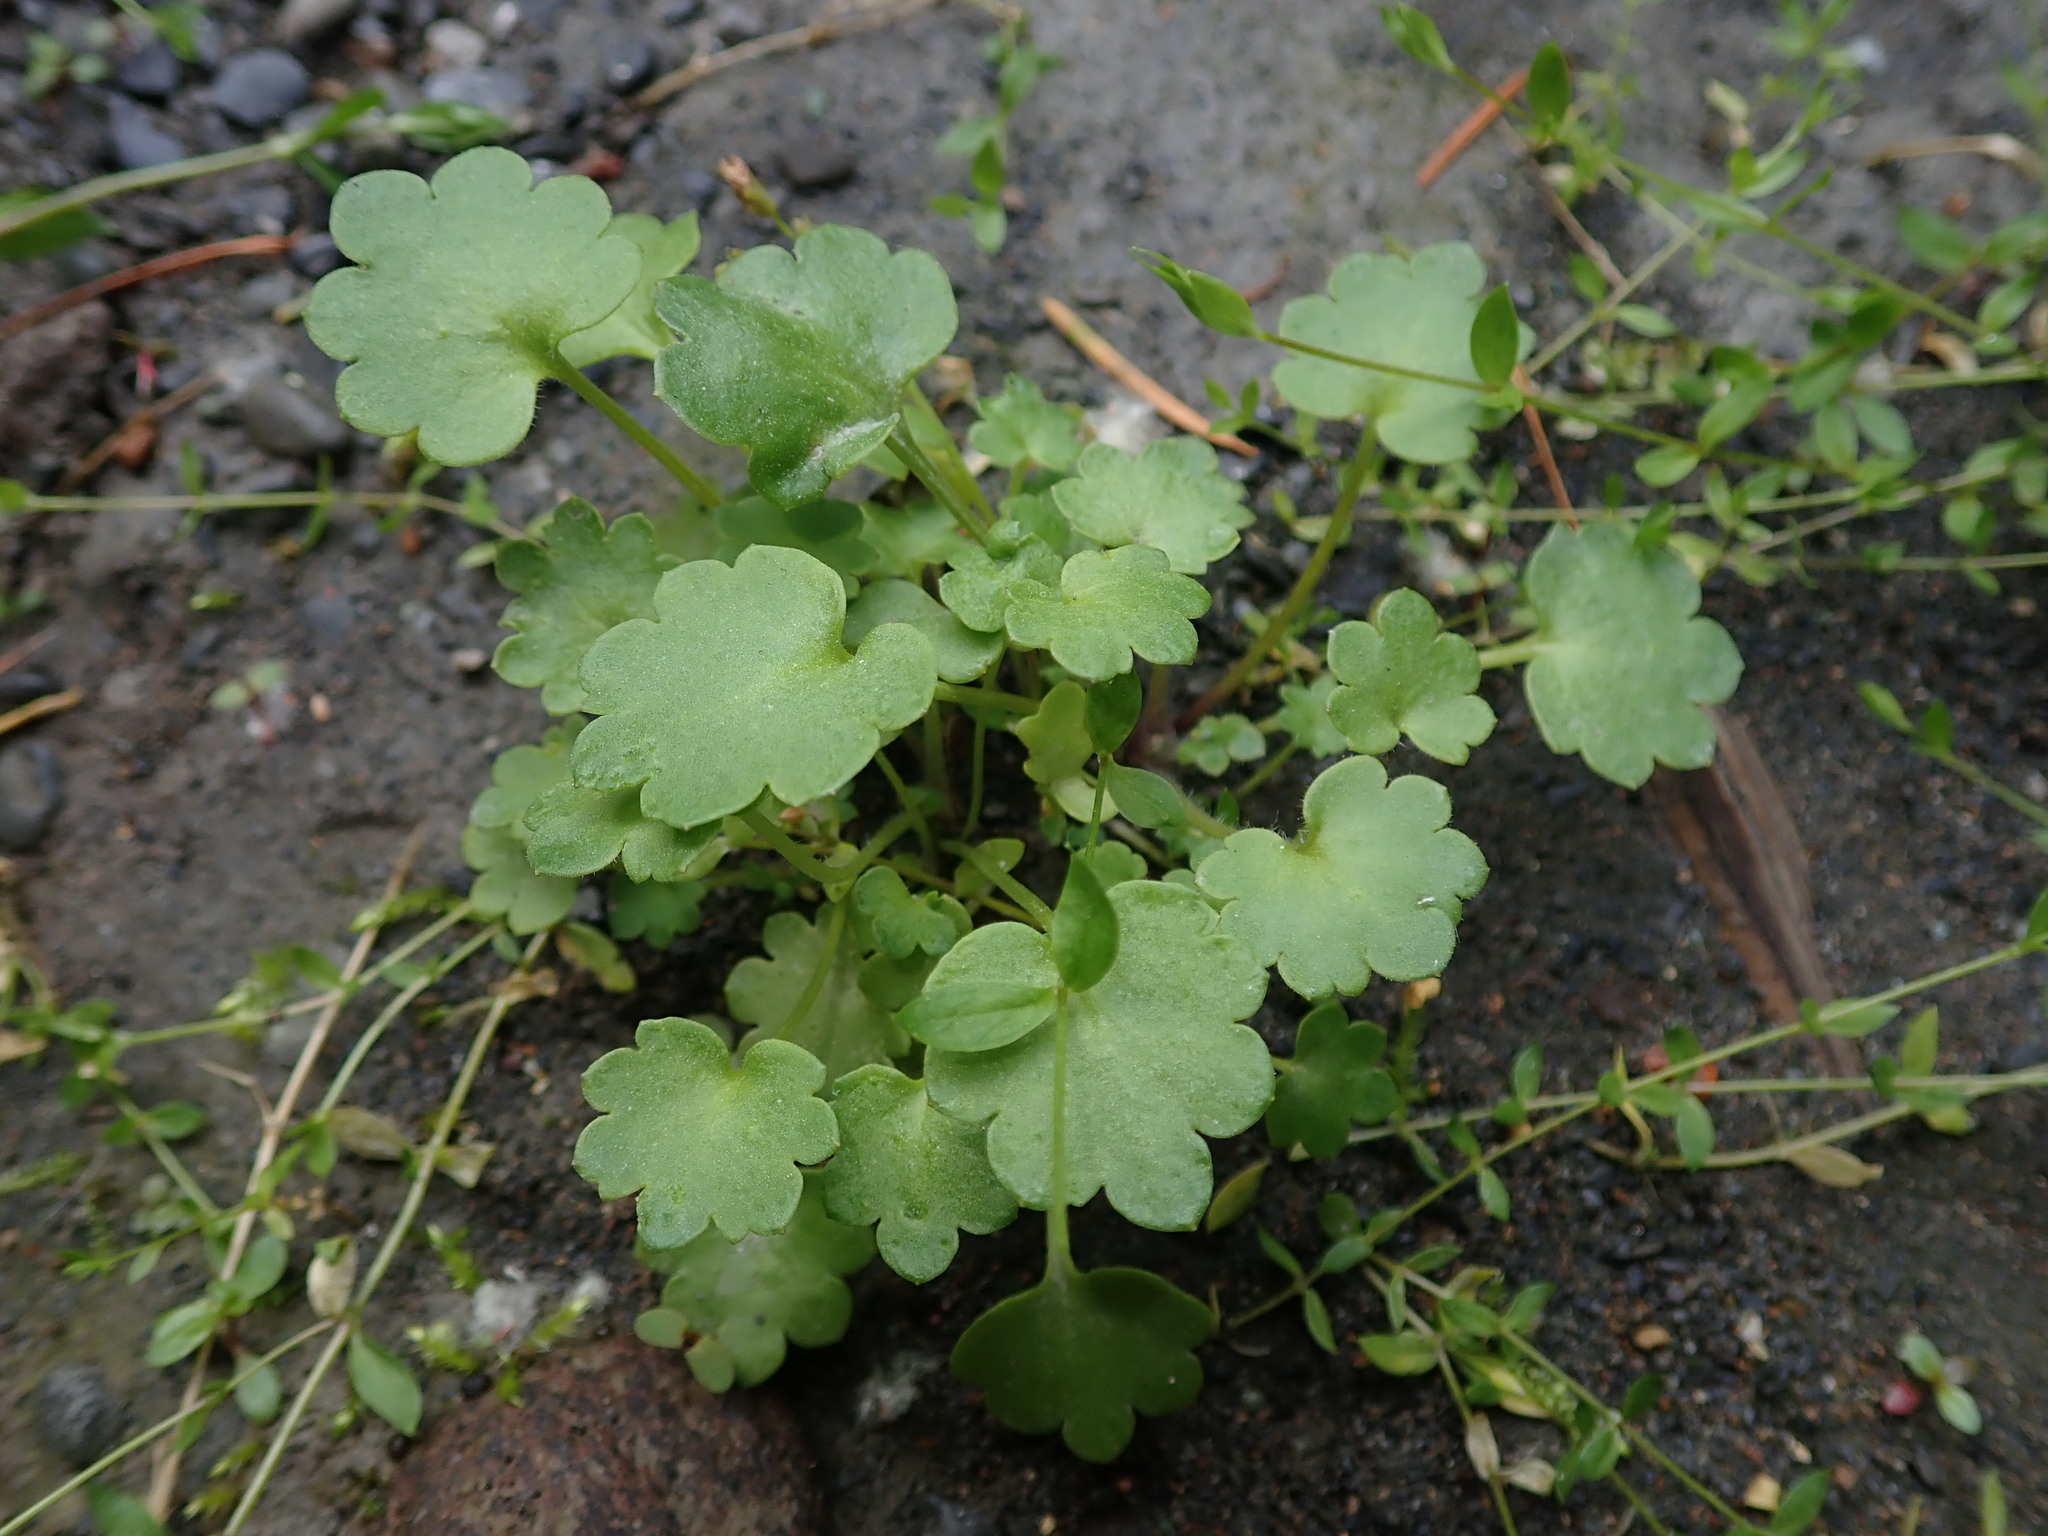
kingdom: Plantae
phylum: Tracheophyta
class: Magnoliopsida
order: Boraginales
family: Hydrophyllaceae
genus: Romanzoffia
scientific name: Romanzoffia sitchensis
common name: Sitka mistmaid
